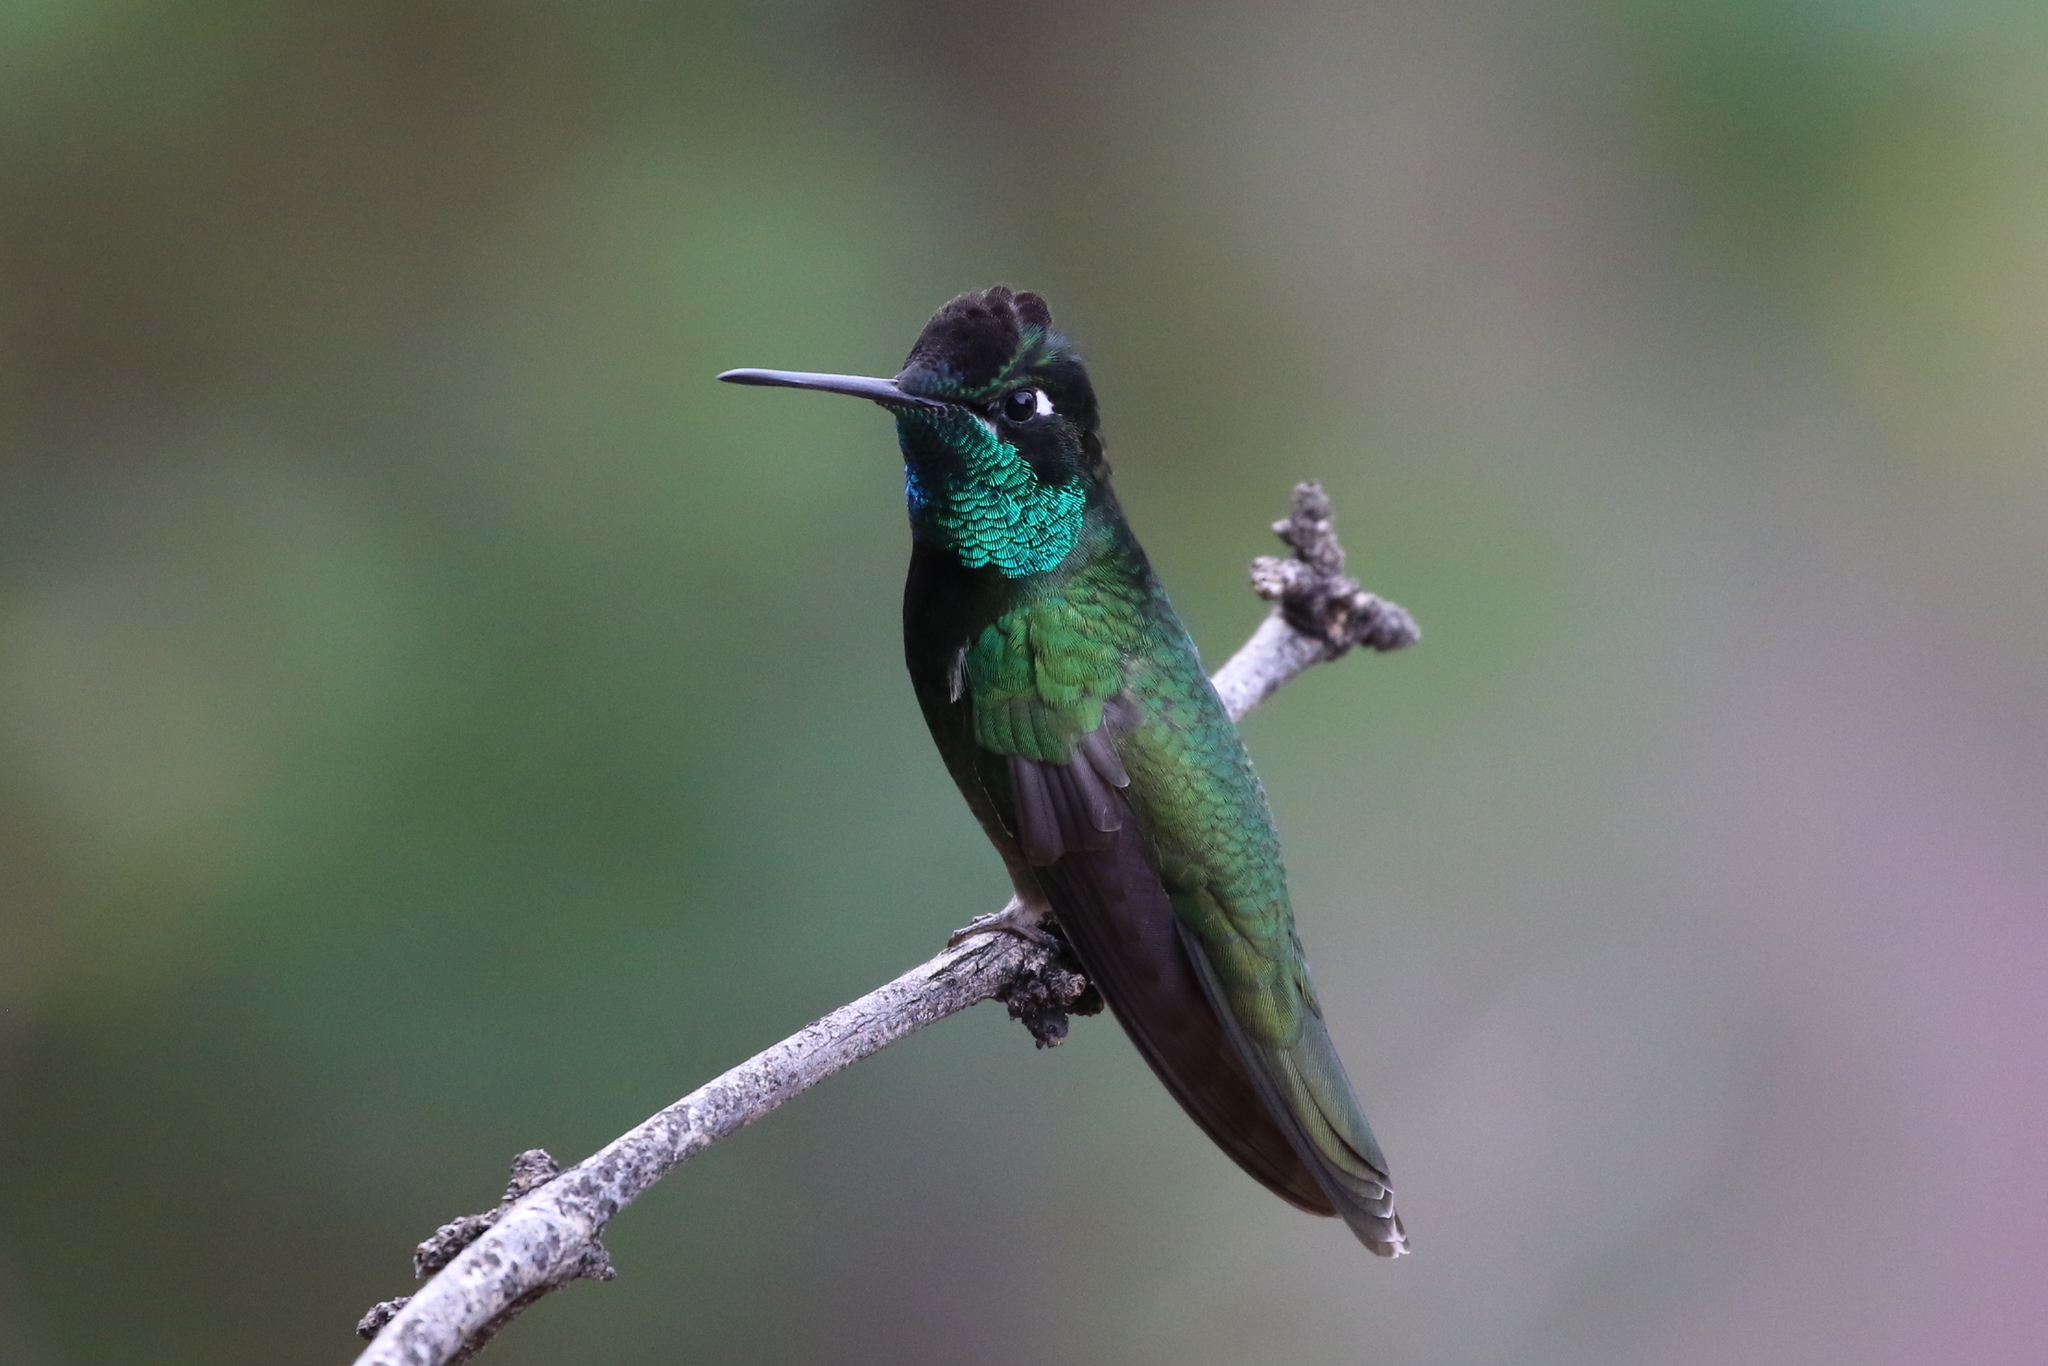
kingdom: Animalia
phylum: Chordata
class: Aves
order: Apodiformes
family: Trochilidae
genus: Eugenes
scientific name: Eugenes fulgens
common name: Magnificent hummingbird
